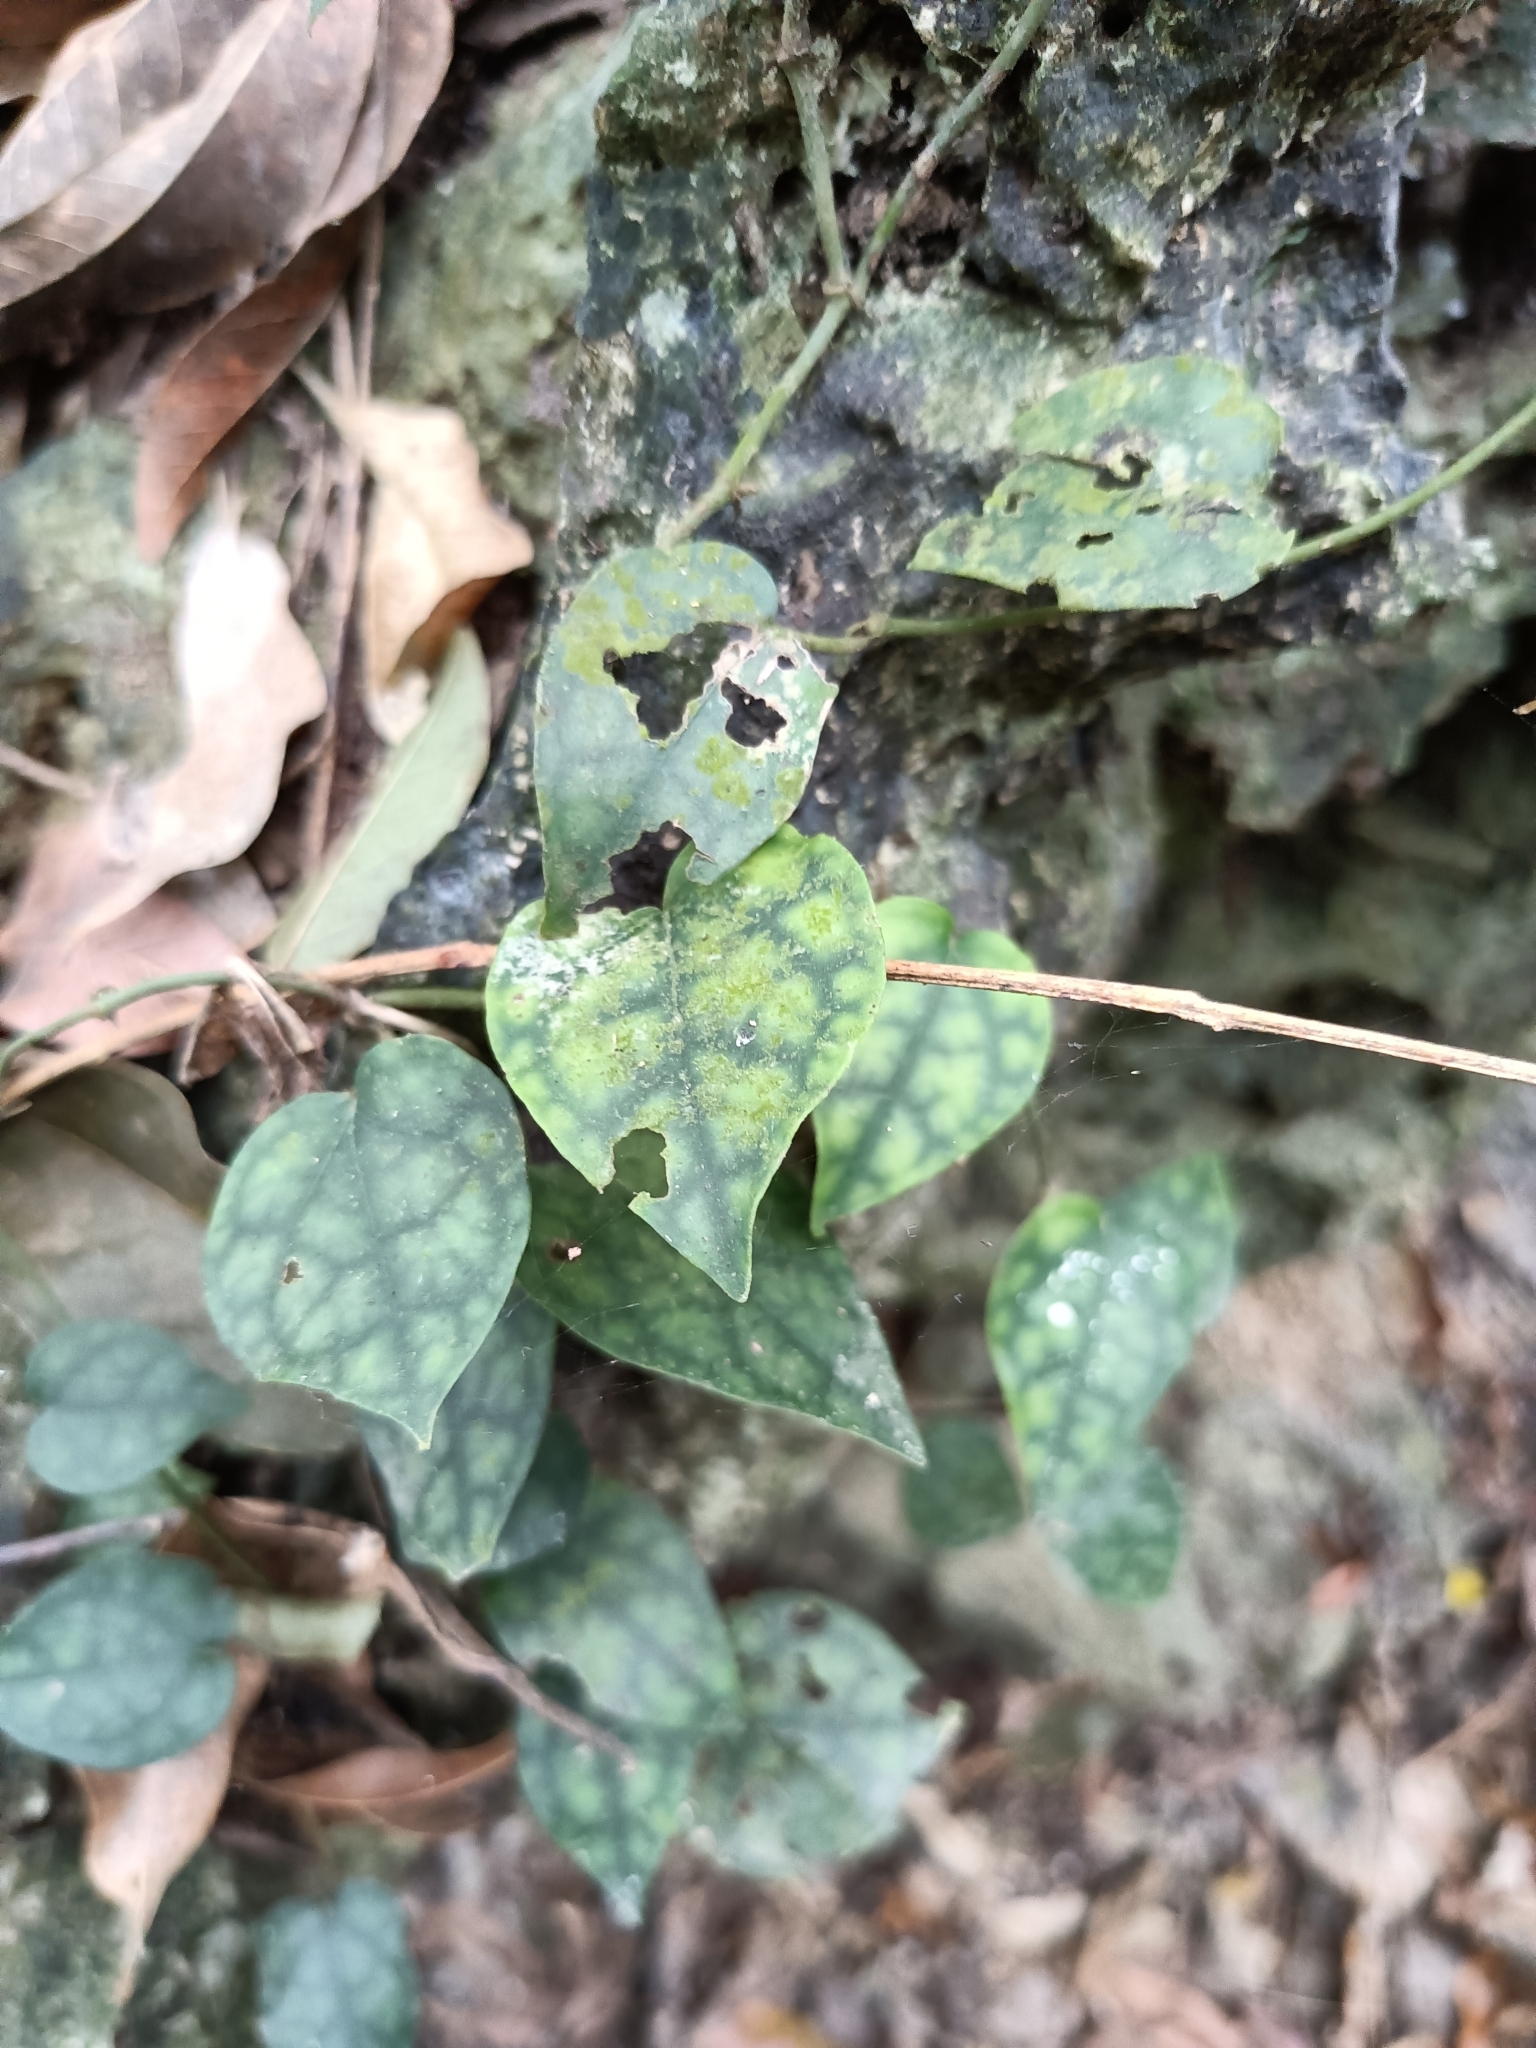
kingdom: Plantae
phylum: Tracheophyta
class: Magnoliopsida
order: Piperales
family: Piperaceae
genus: Piper
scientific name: Piper kadsura
